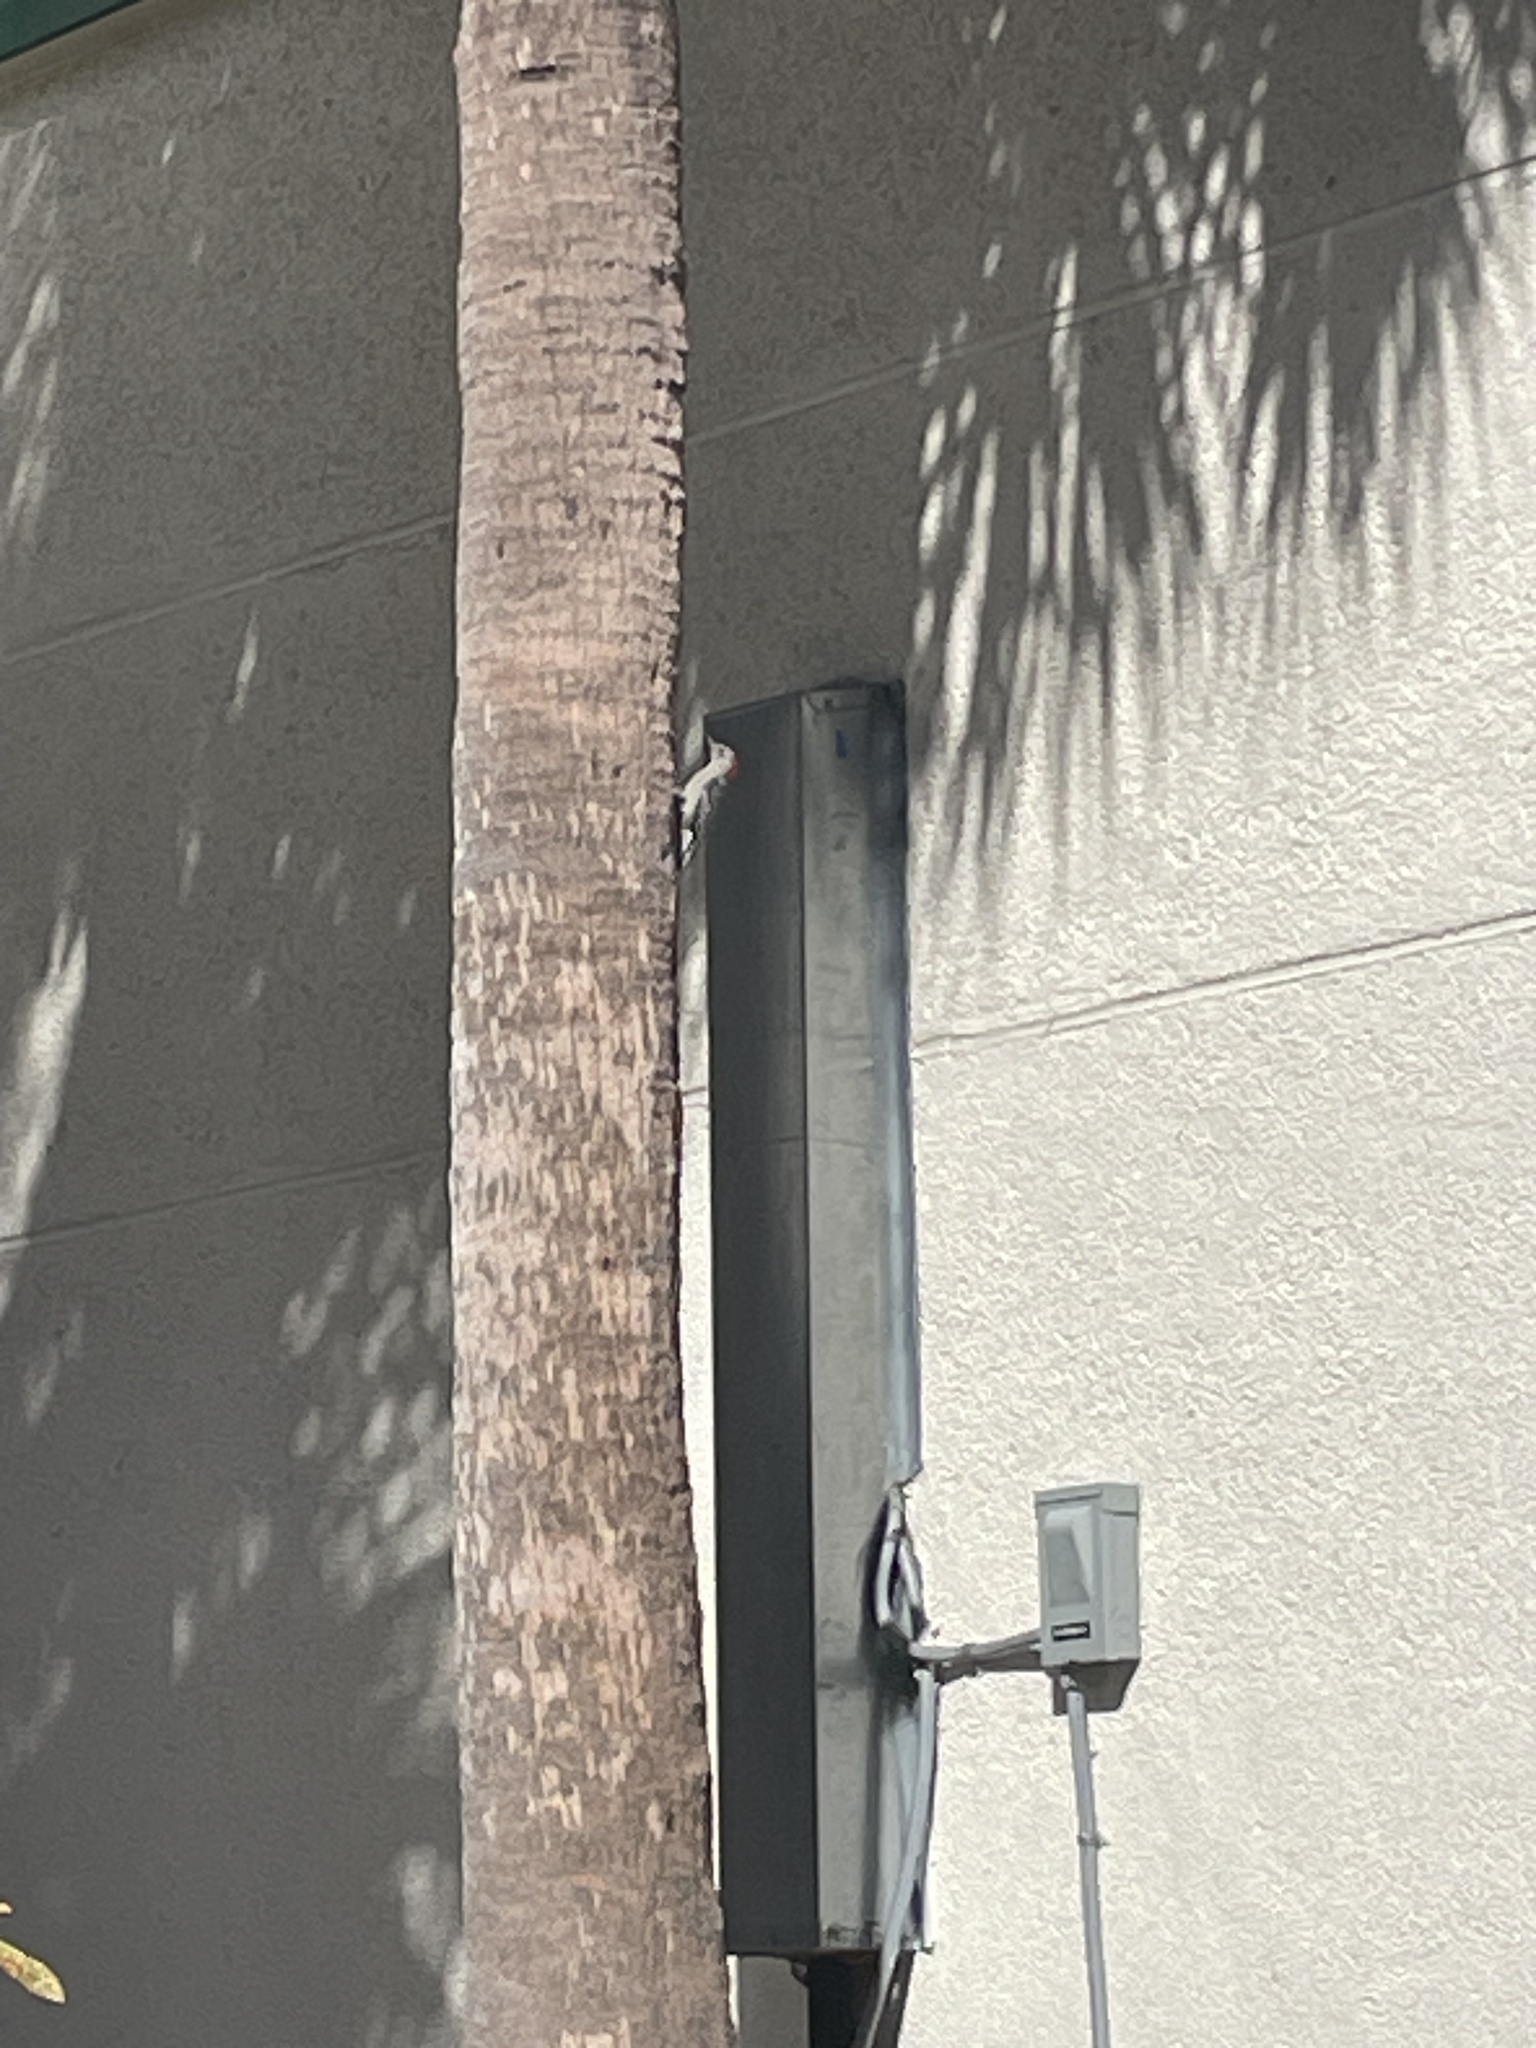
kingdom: Animalia
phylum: Chordata
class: Aves
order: Piciformes
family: Picidae
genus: Melanerpes
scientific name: Melanerpes carolinus
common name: Red-bellied woodpecker
